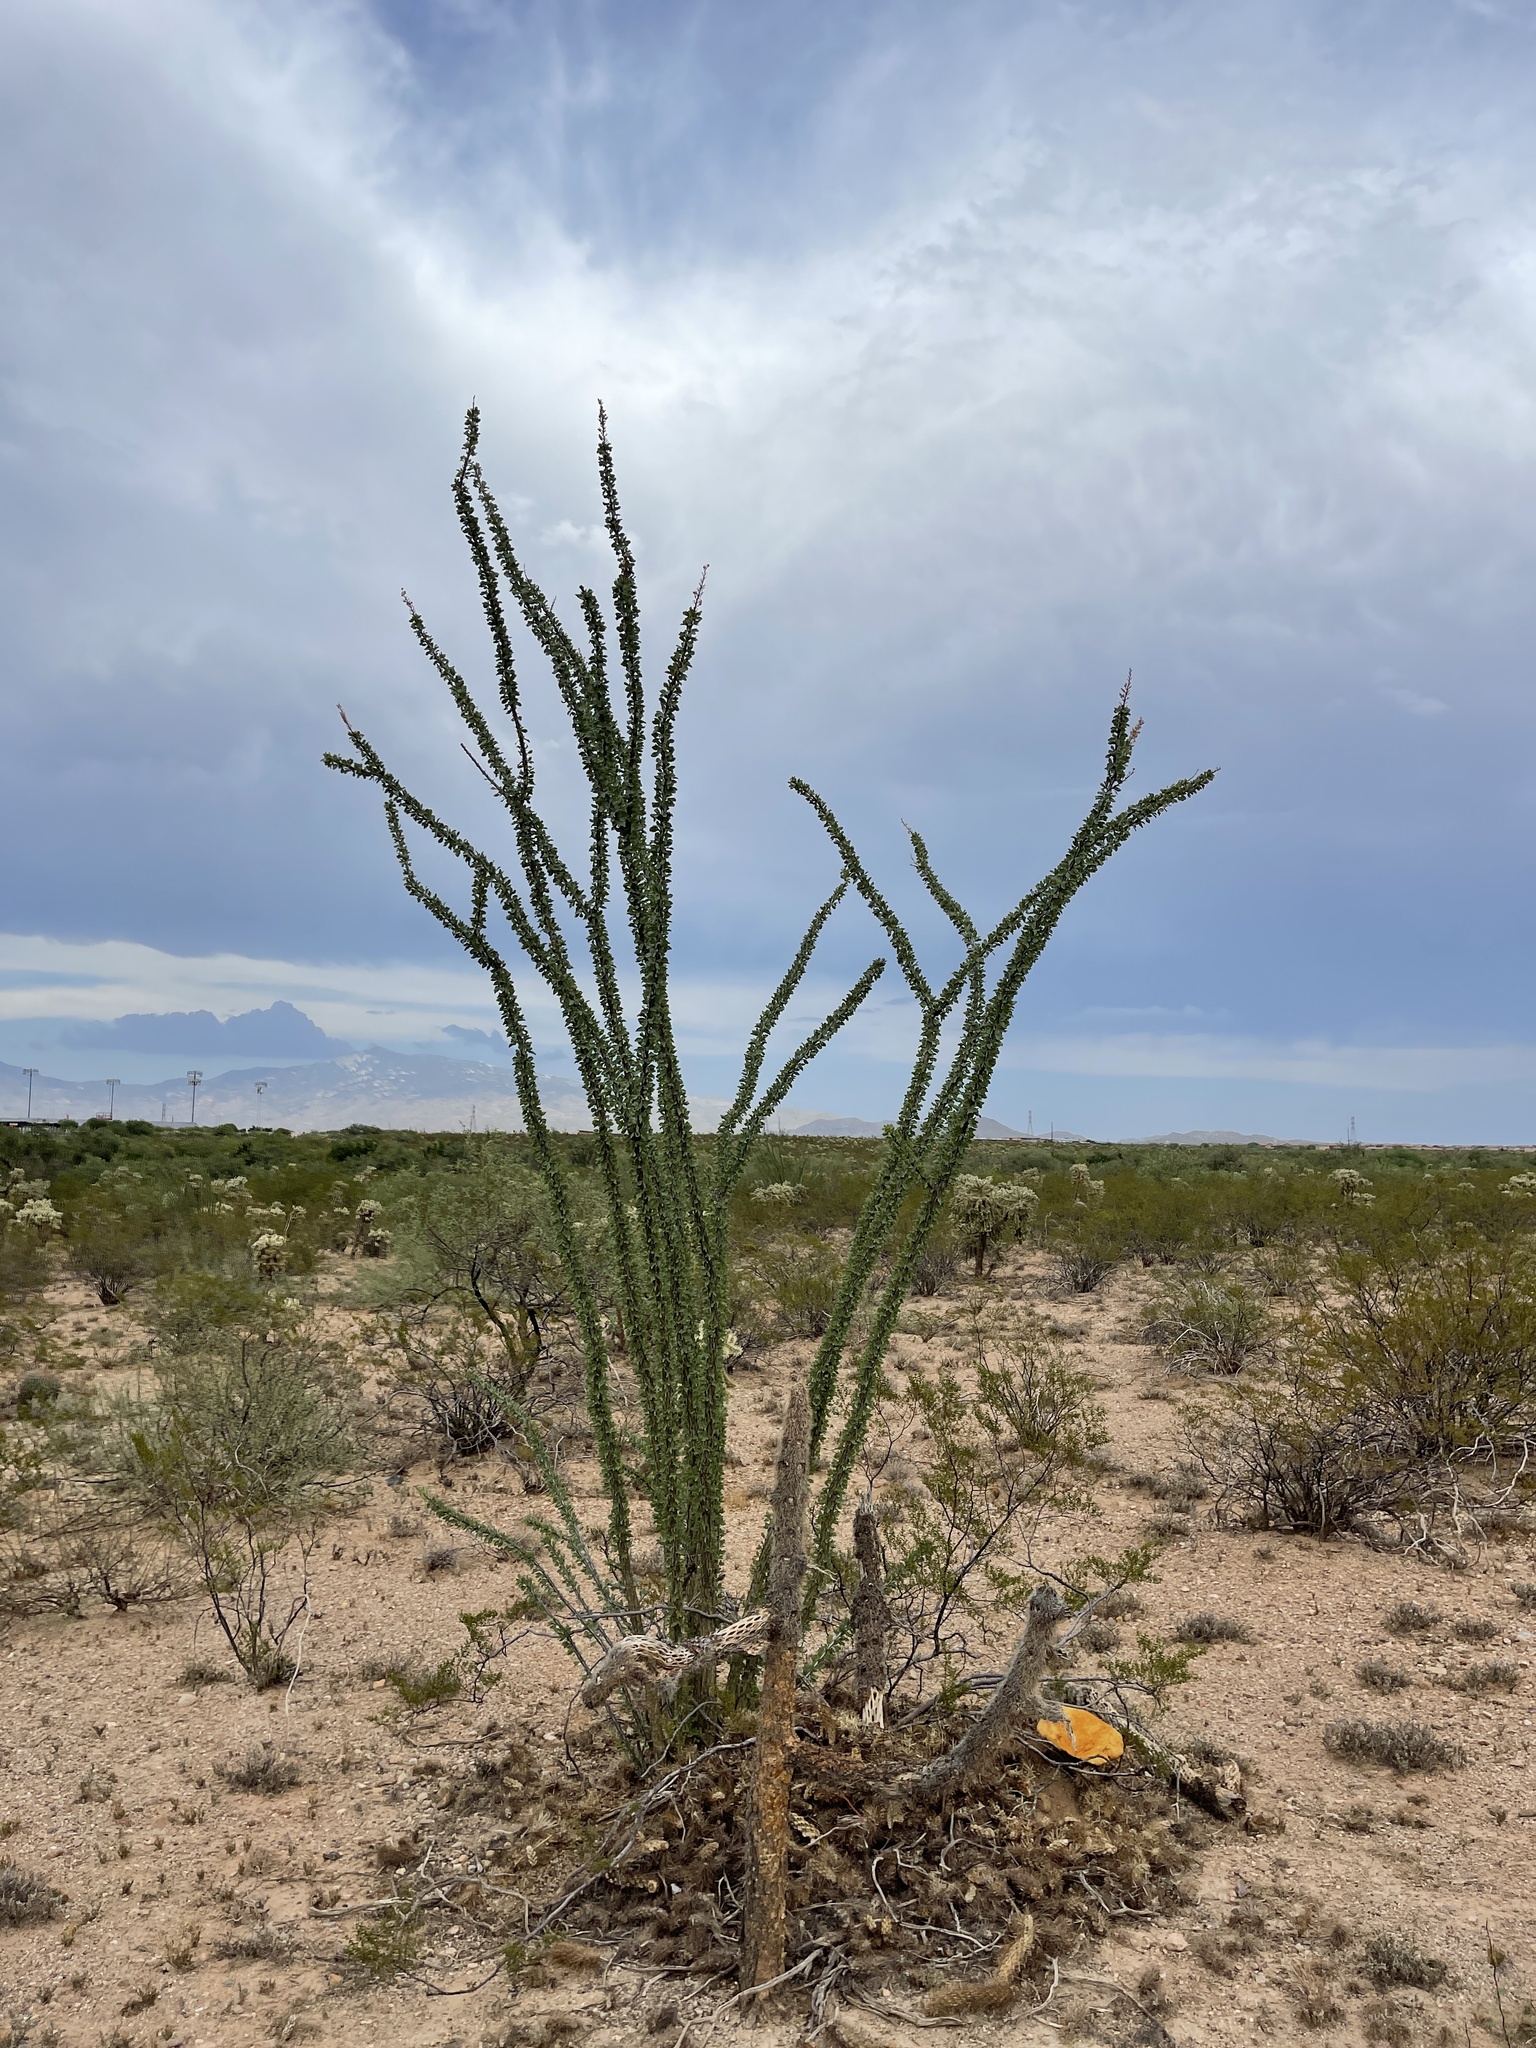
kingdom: Plantae
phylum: Tracheophyta
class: Magnoliopsida
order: Ericales
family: Fouquieriaceae
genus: Fouquieria
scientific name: Fouquieria splendens
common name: Vine-cactus
